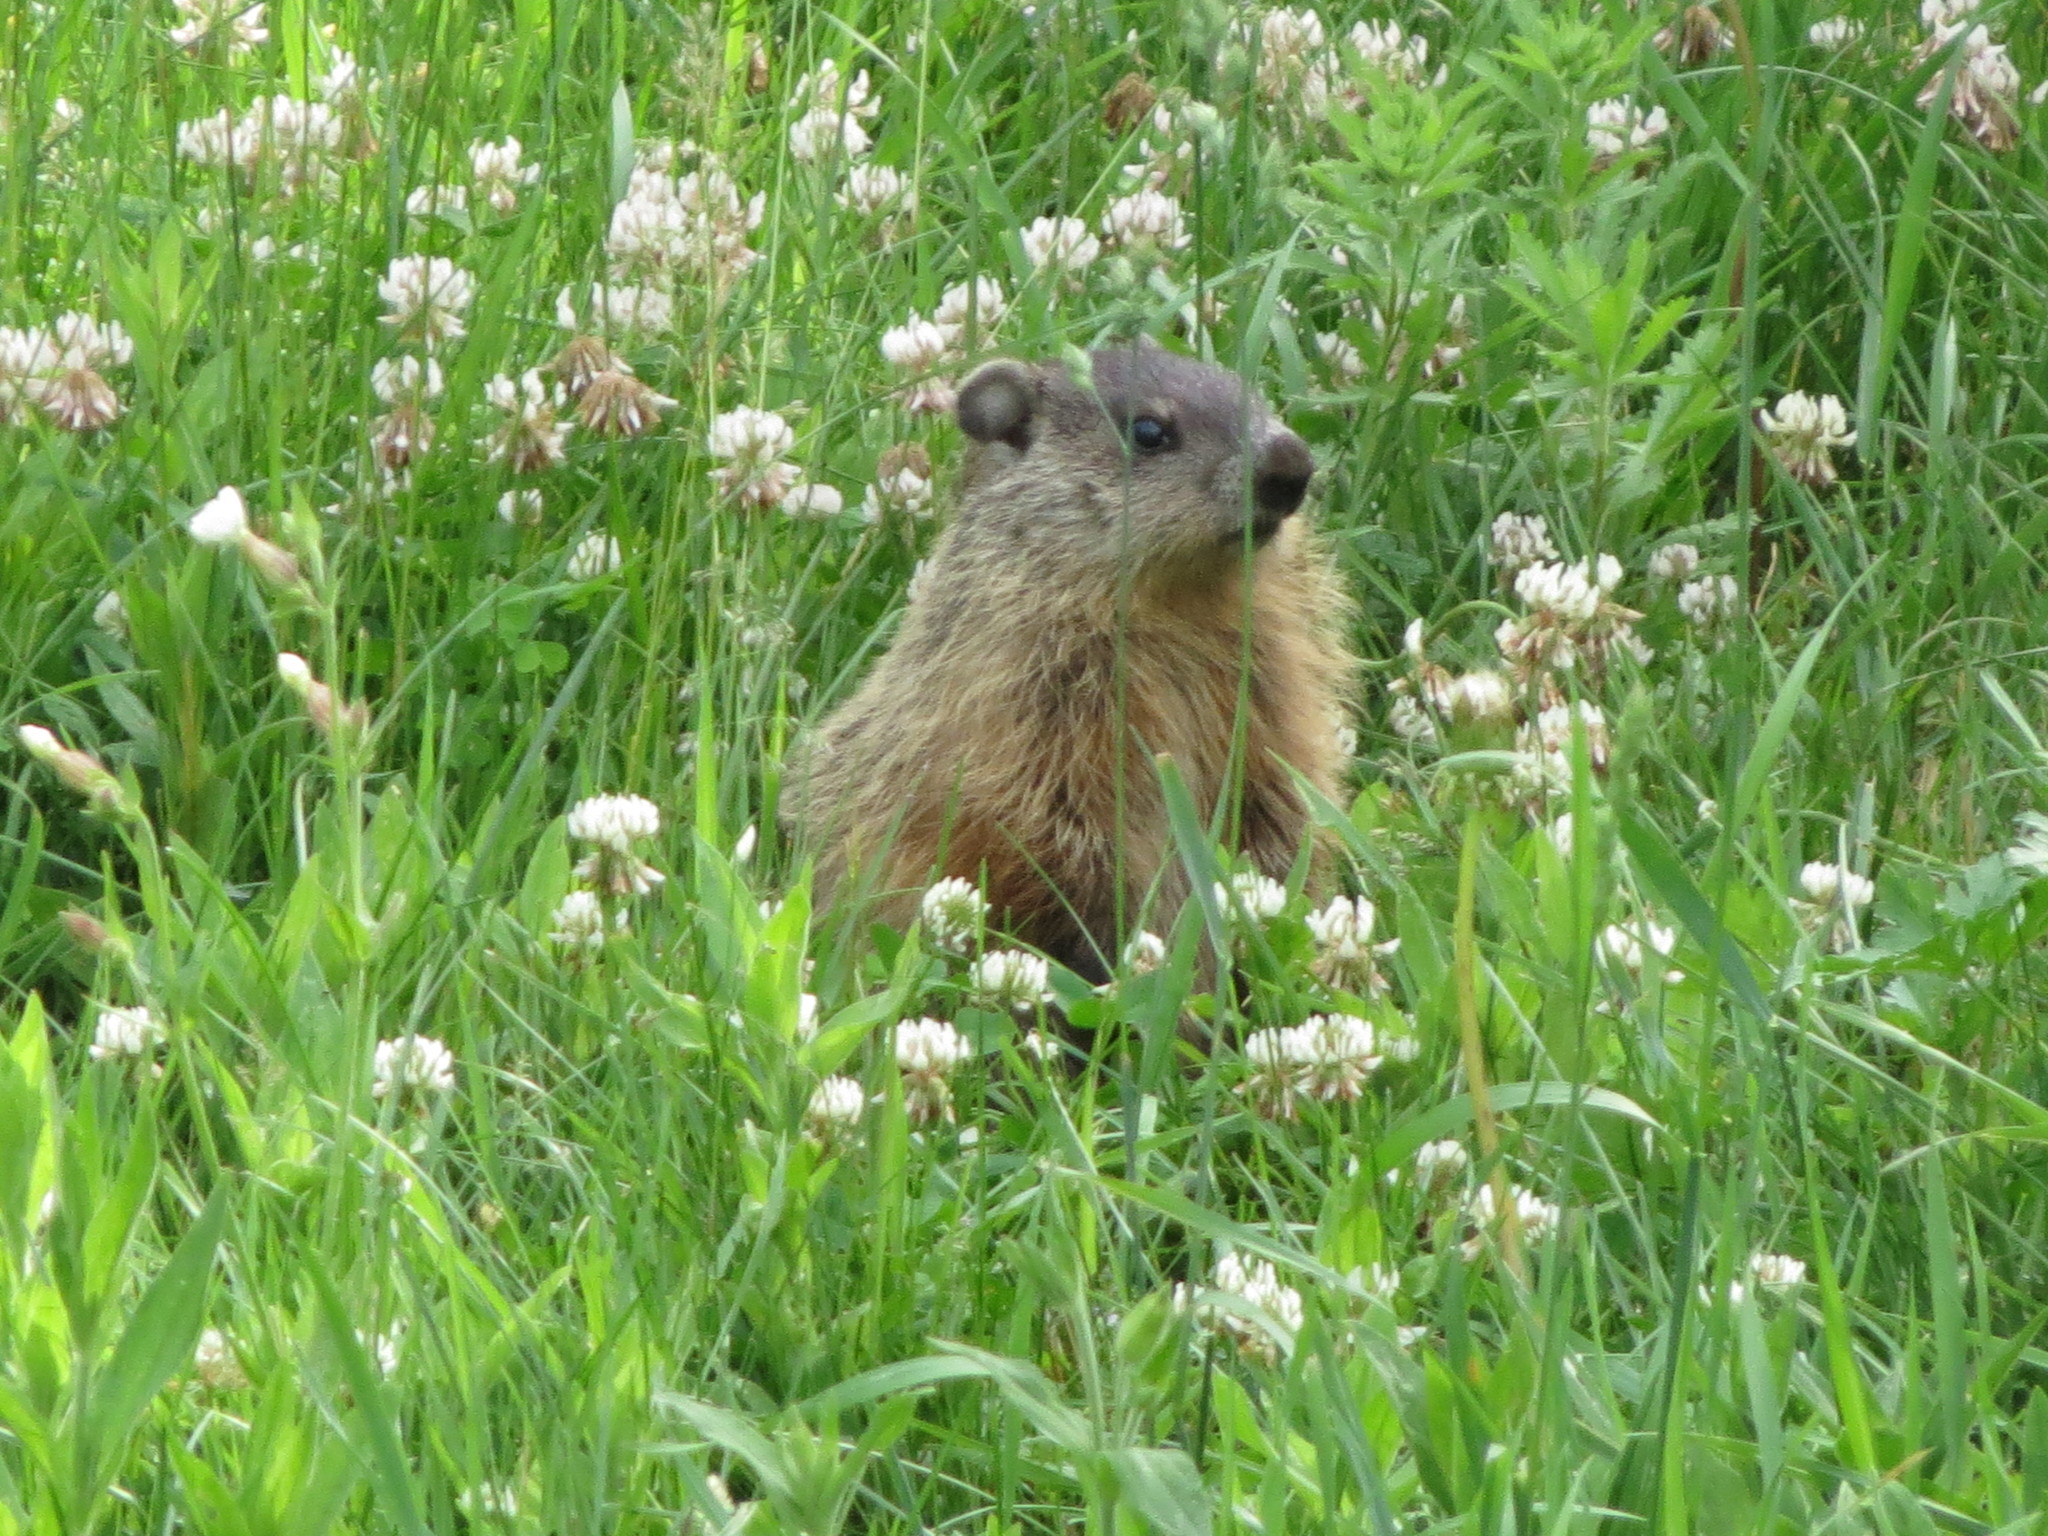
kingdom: Animalia
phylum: Chordata
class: Mammalia
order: Rodentia
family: Sciuridae
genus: Marmota
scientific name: Marmota monax
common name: Groundhog
